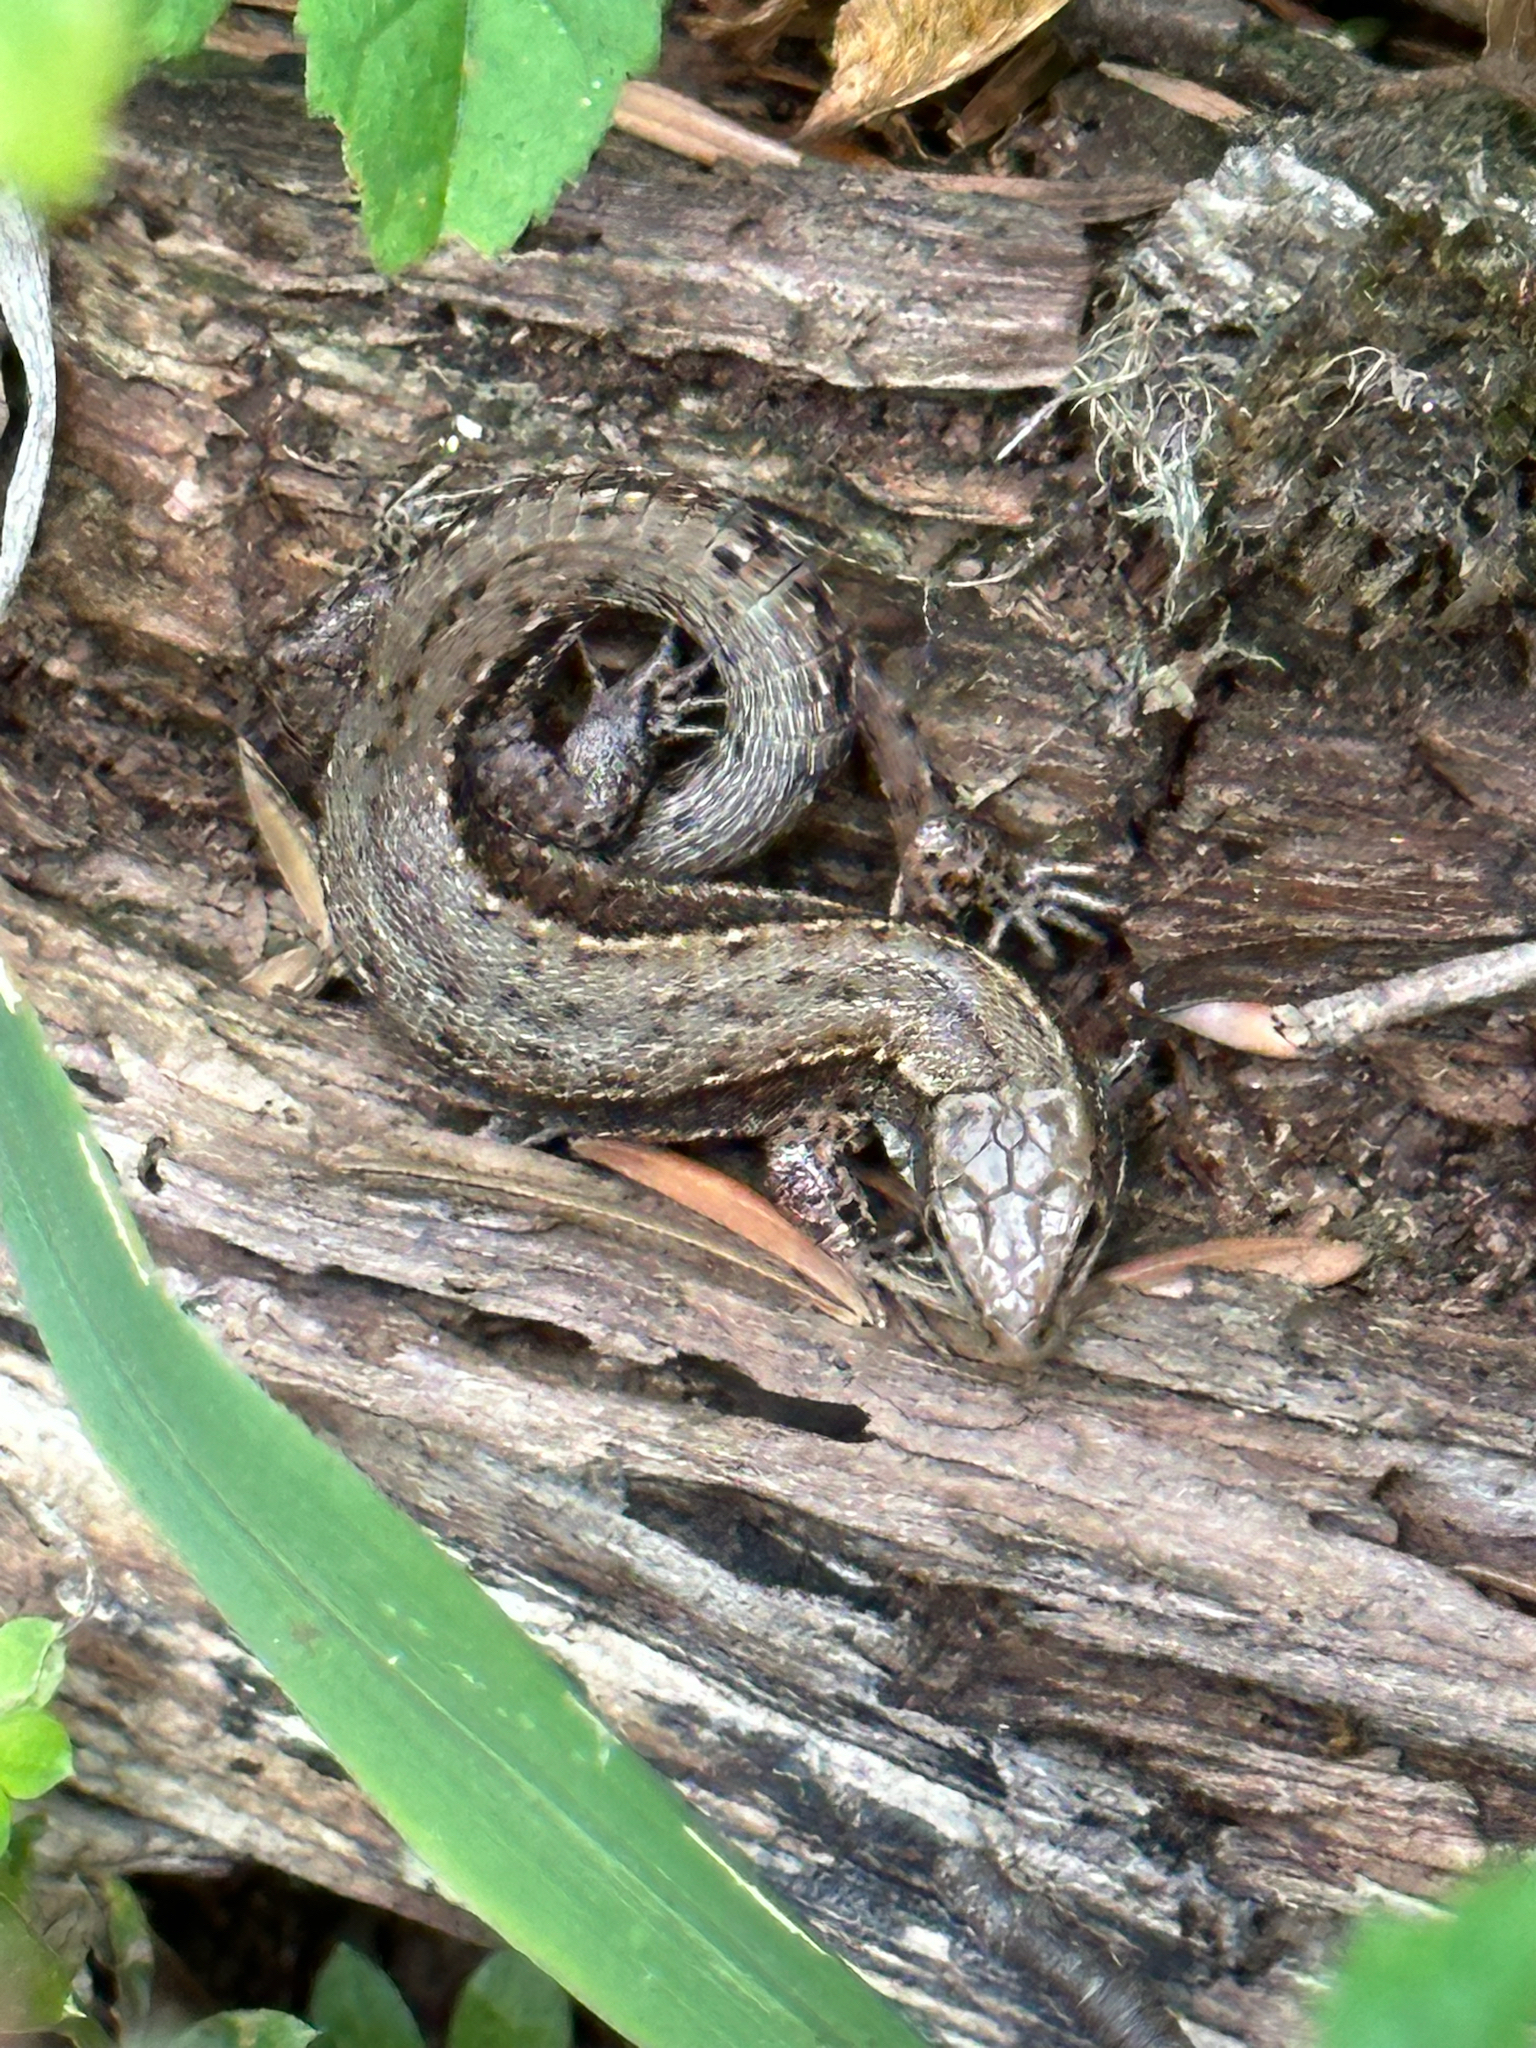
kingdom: Animalia
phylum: Chordata
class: Squamata
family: Lacertidae
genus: Zootoca
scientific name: Zootoca vivipara
